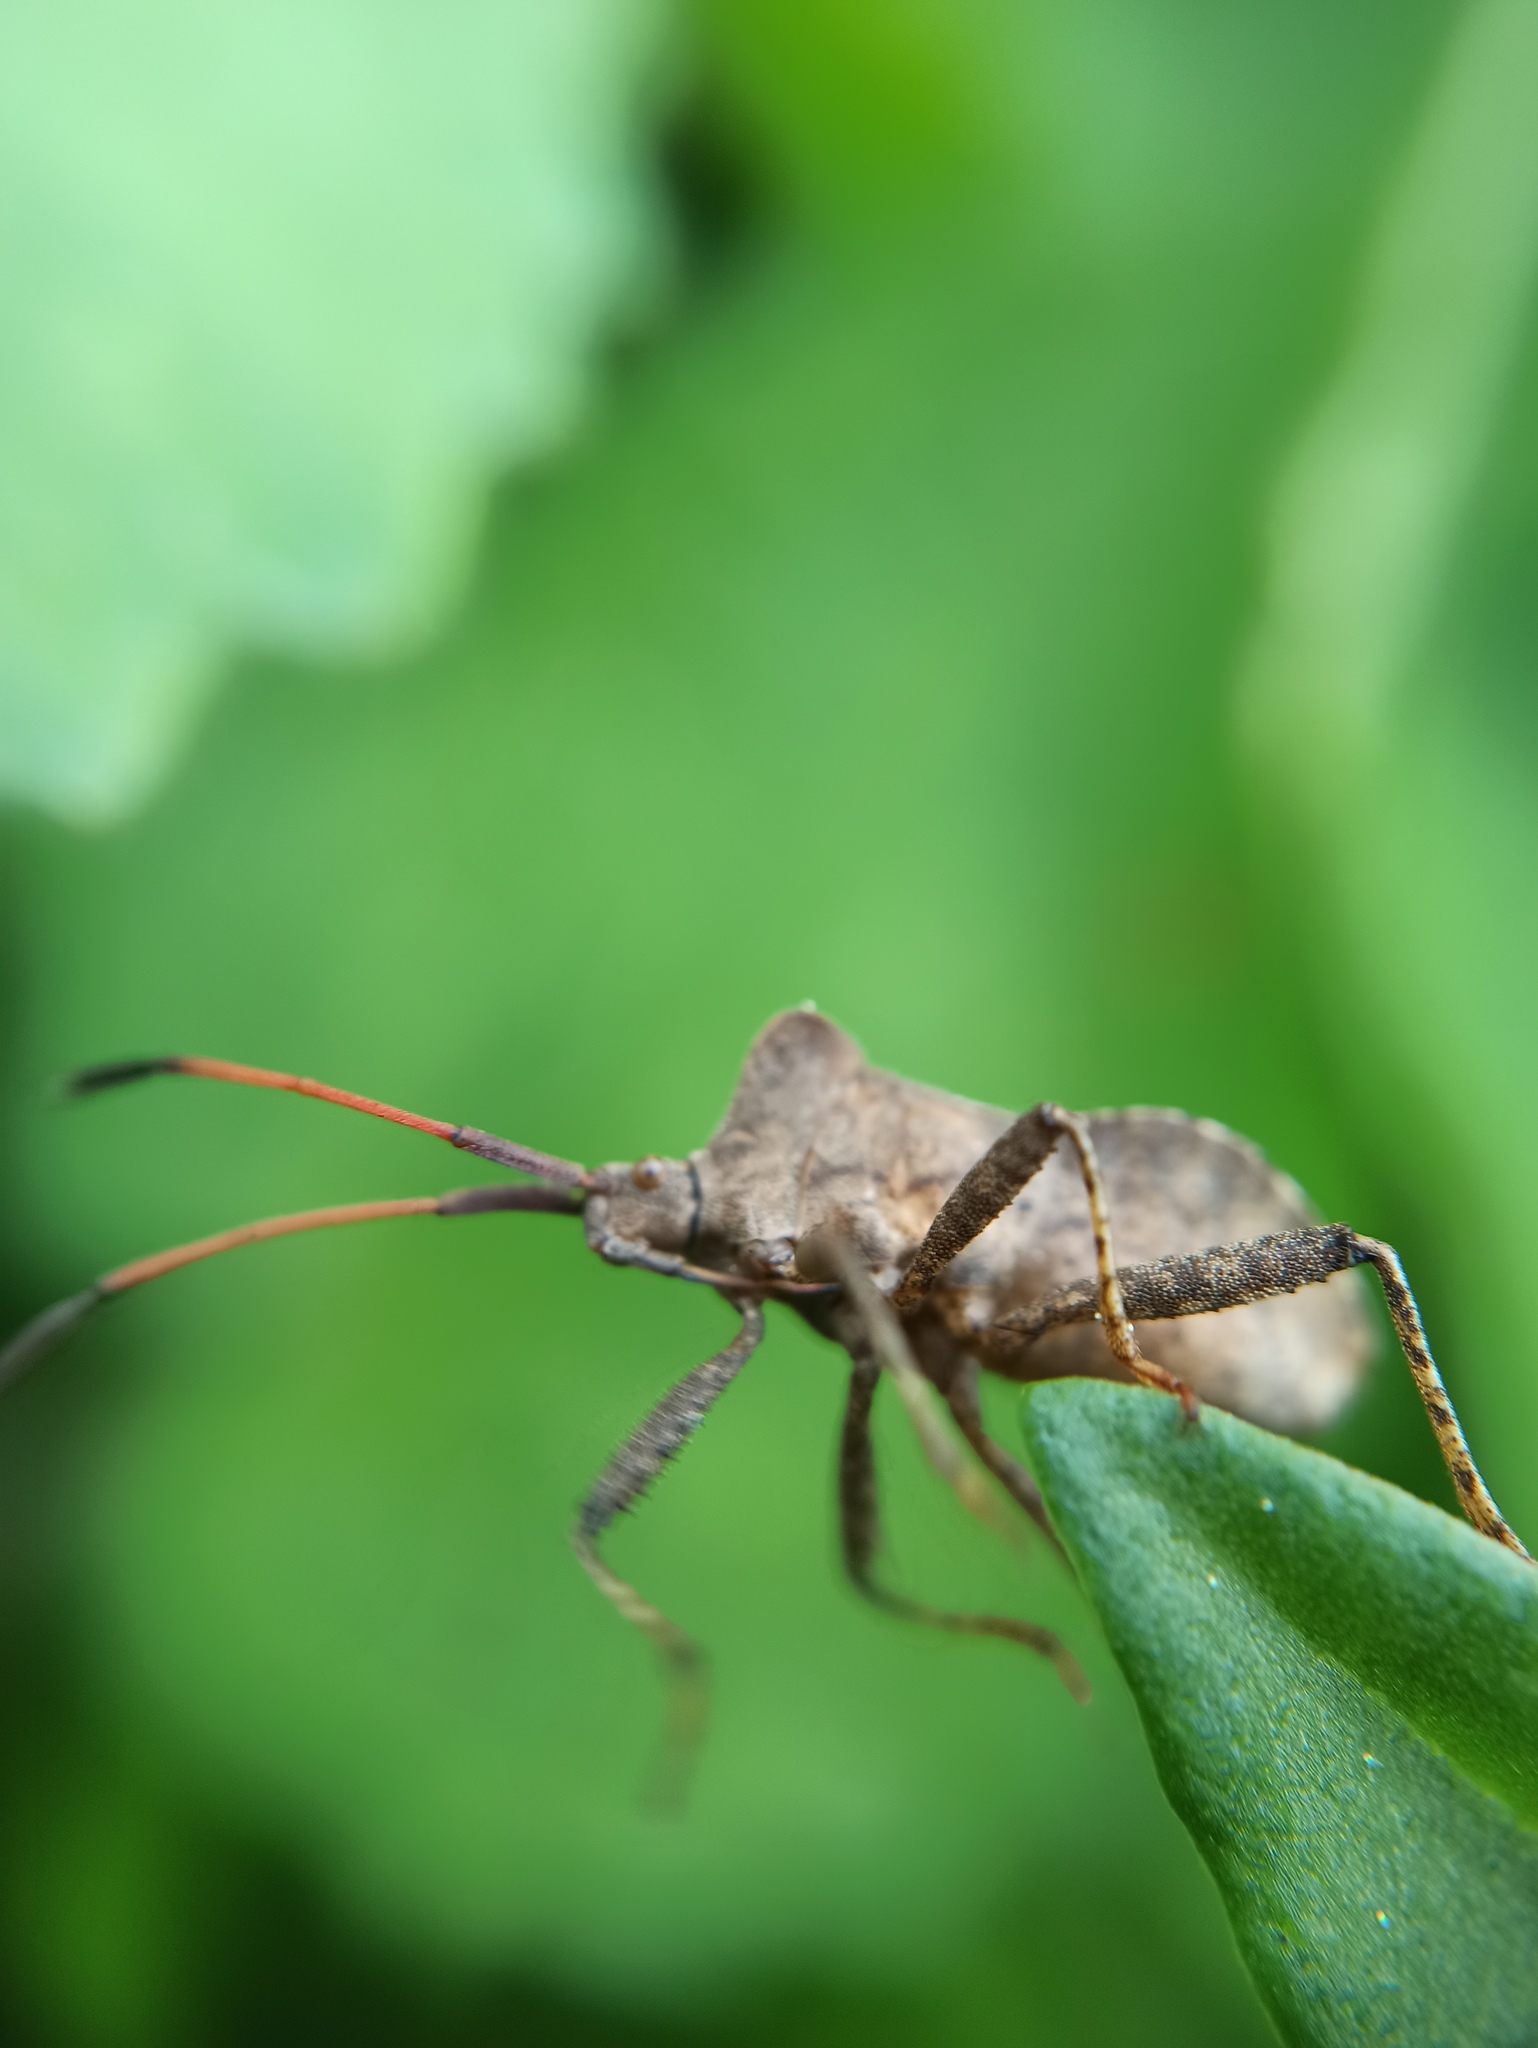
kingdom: Animalia
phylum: Arthropoda
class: Insecta
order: Hemiptera
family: Coreidae
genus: Coreus
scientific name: Coreus marginatus
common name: Dock bug
